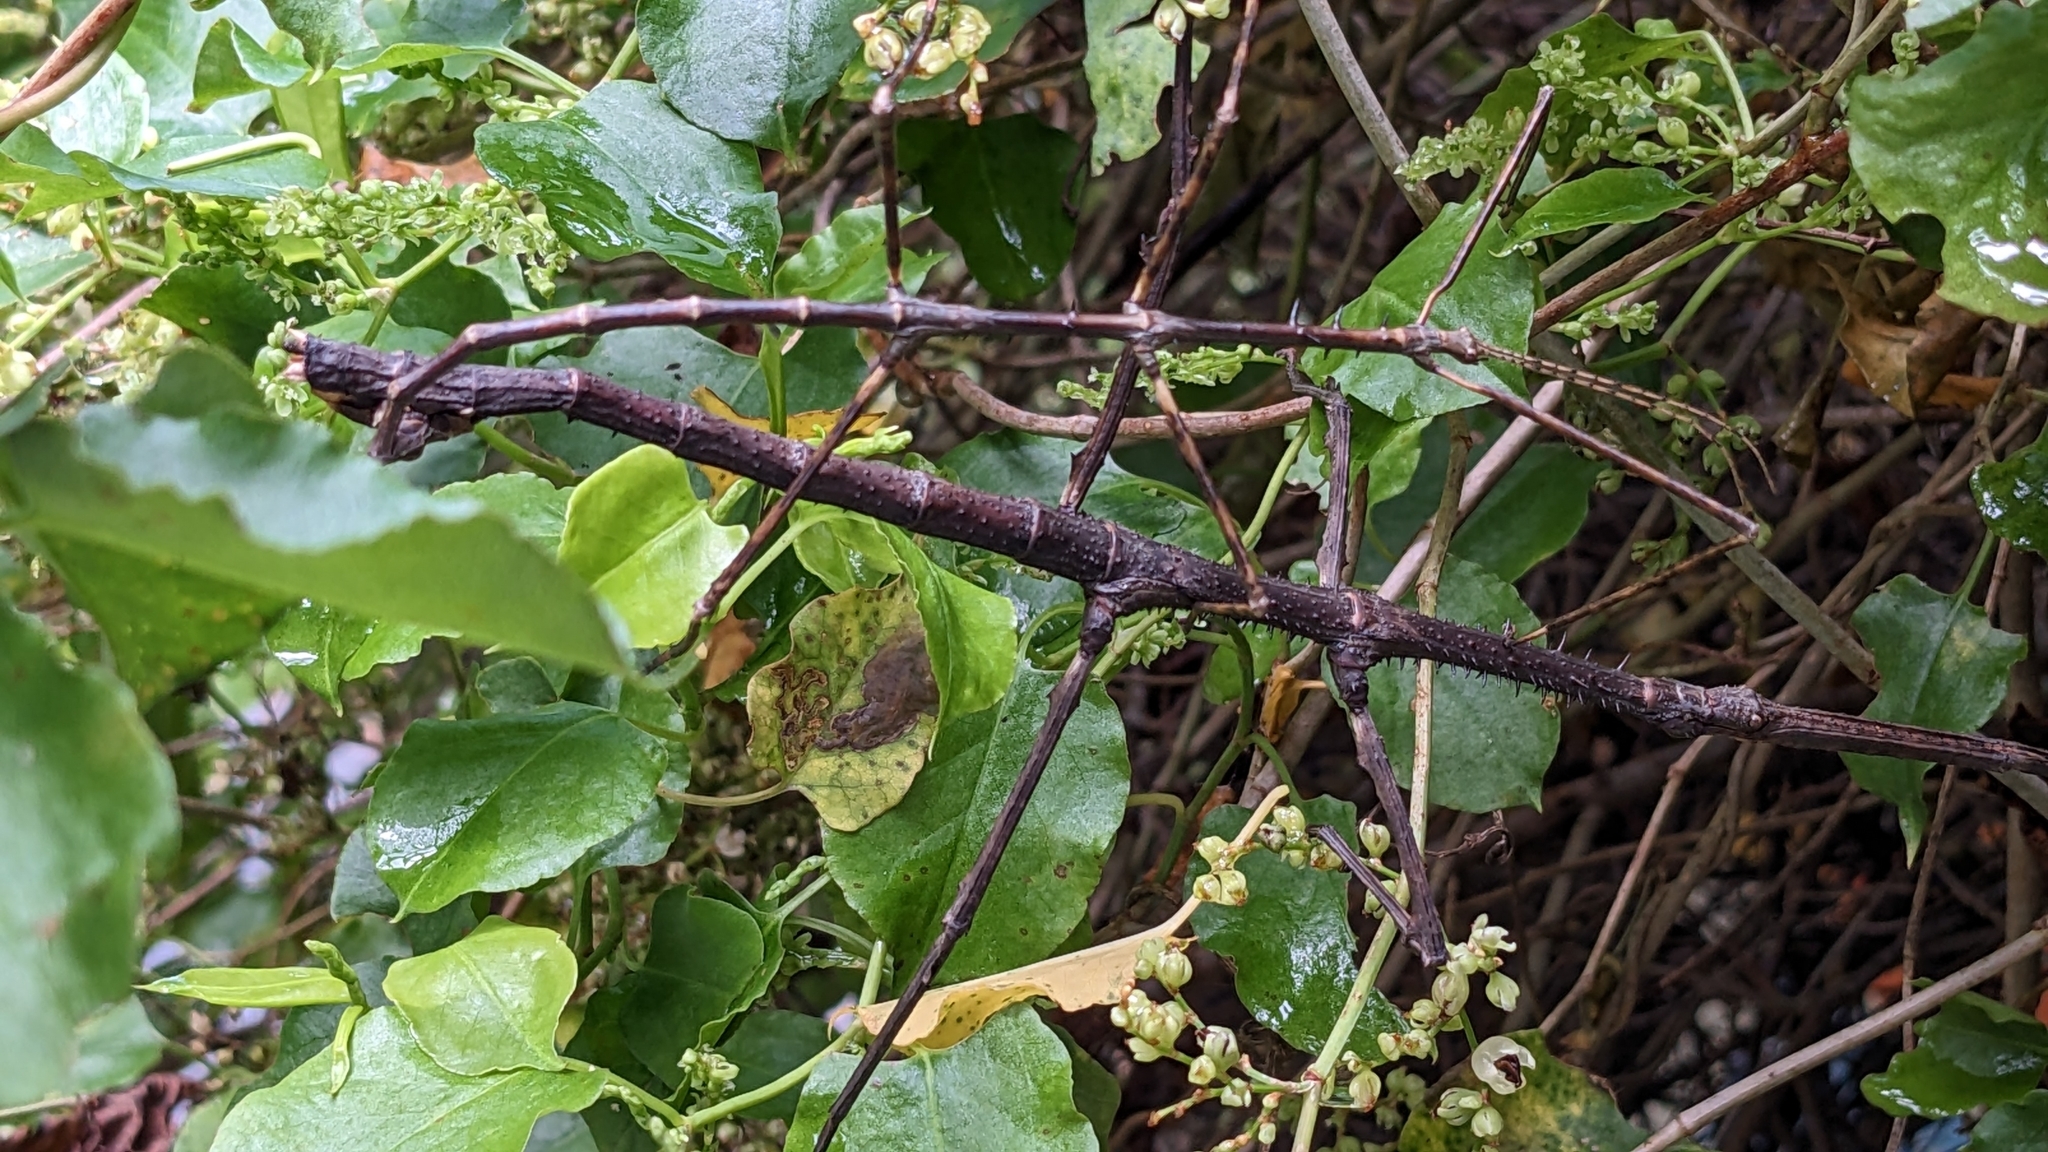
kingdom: Animalia
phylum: Arthropoda
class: Insecta
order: Phasmida
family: Phasmatidae
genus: Argosarchus
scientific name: Argosarchus horridus
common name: Bristly stick insect
